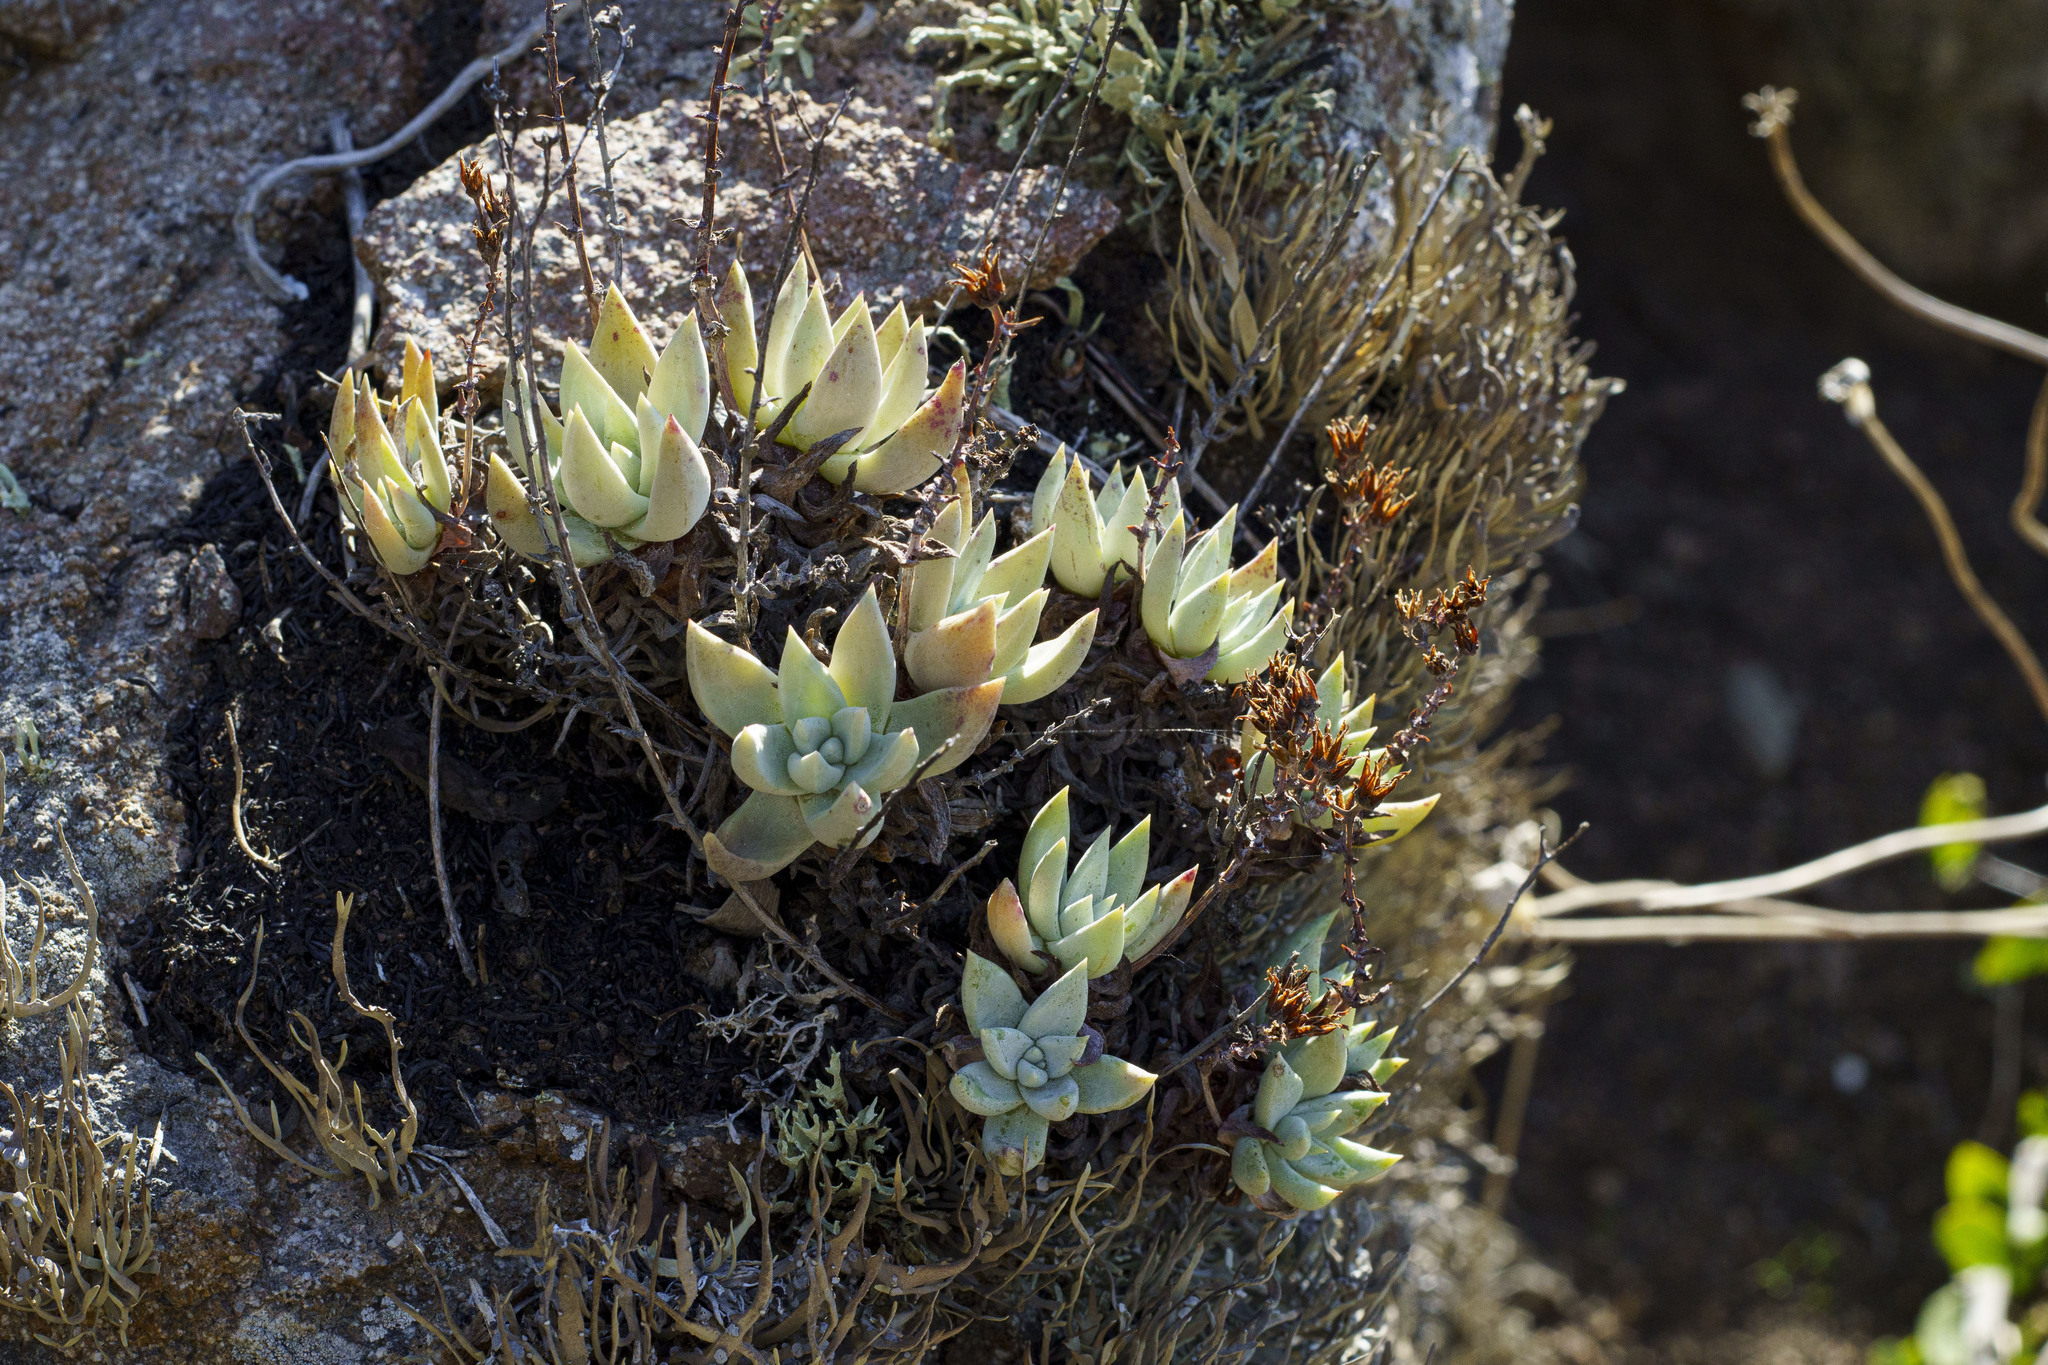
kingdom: Plantae
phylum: Tracheophyta
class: Magnoliopsida
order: Saxifragales
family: Crassulaceae
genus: Dudleya
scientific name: Dudleya campanulata
